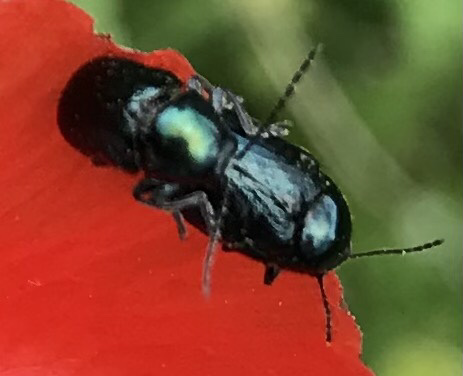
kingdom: Animalia
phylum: Arthropoda
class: Insecta
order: Coleoptera
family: Chrysomelidae
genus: Cryptocephalus
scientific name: Cryptocephalus violaceus
